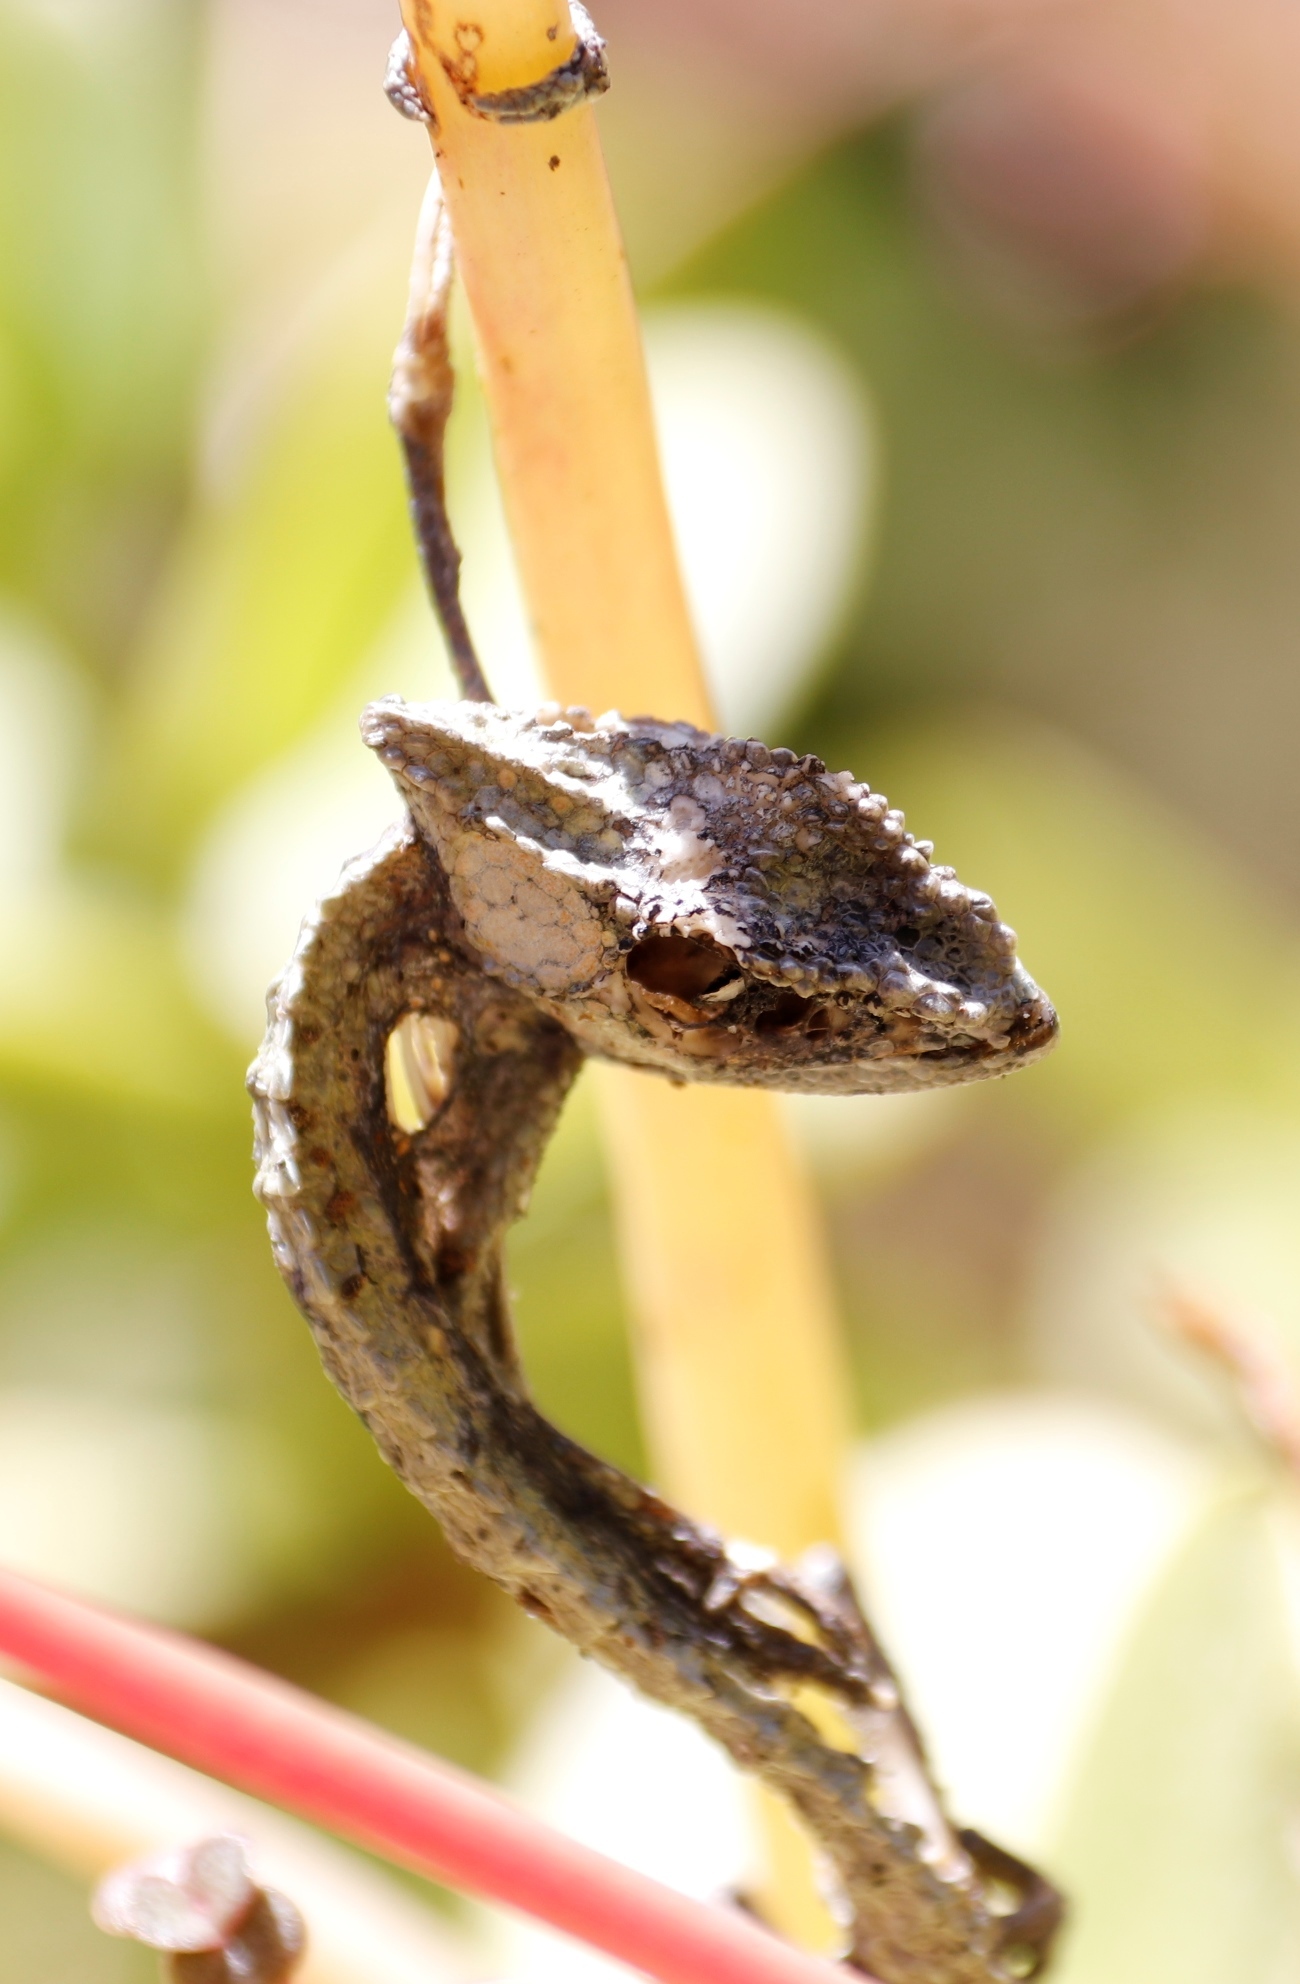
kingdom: Animalia
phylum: Chordata
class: Squamata
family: Chamaeleonidae
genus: Bradypodion
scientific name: Bradypodion pumilum
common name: Cape dwarf chameleon
